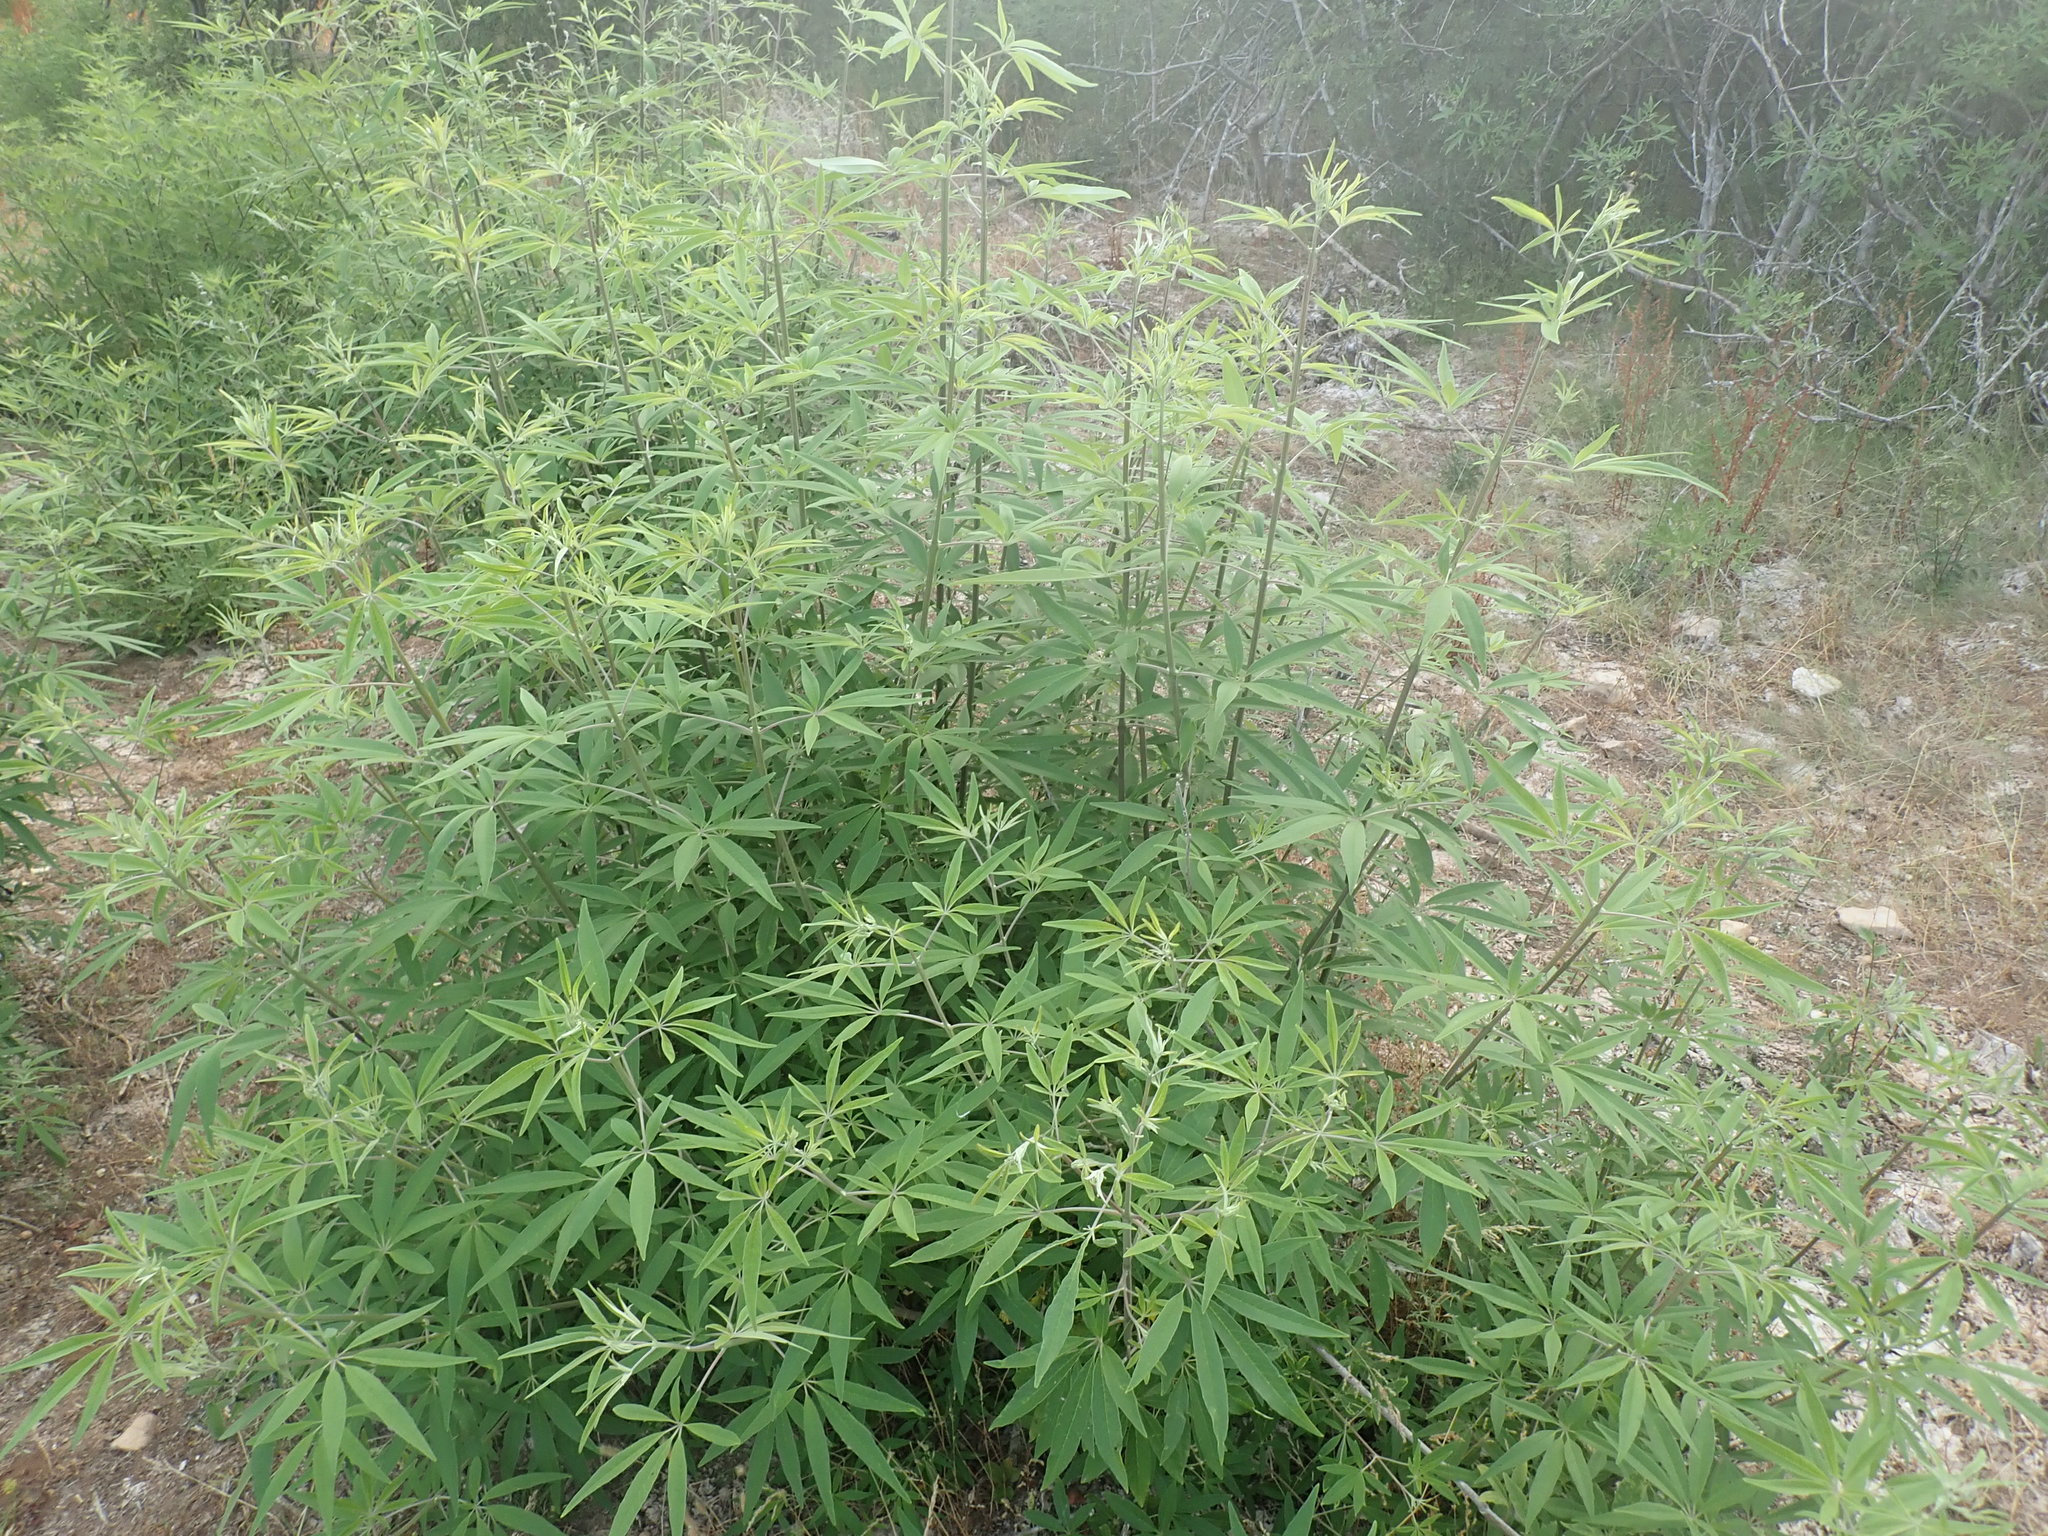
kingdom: Plantae
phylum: Tracheophyta
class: Magnoliopsida
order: Lamiales
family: Lamiaceae
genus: Vitex
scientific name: Vitex agnus-castus
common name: Chasteberry
